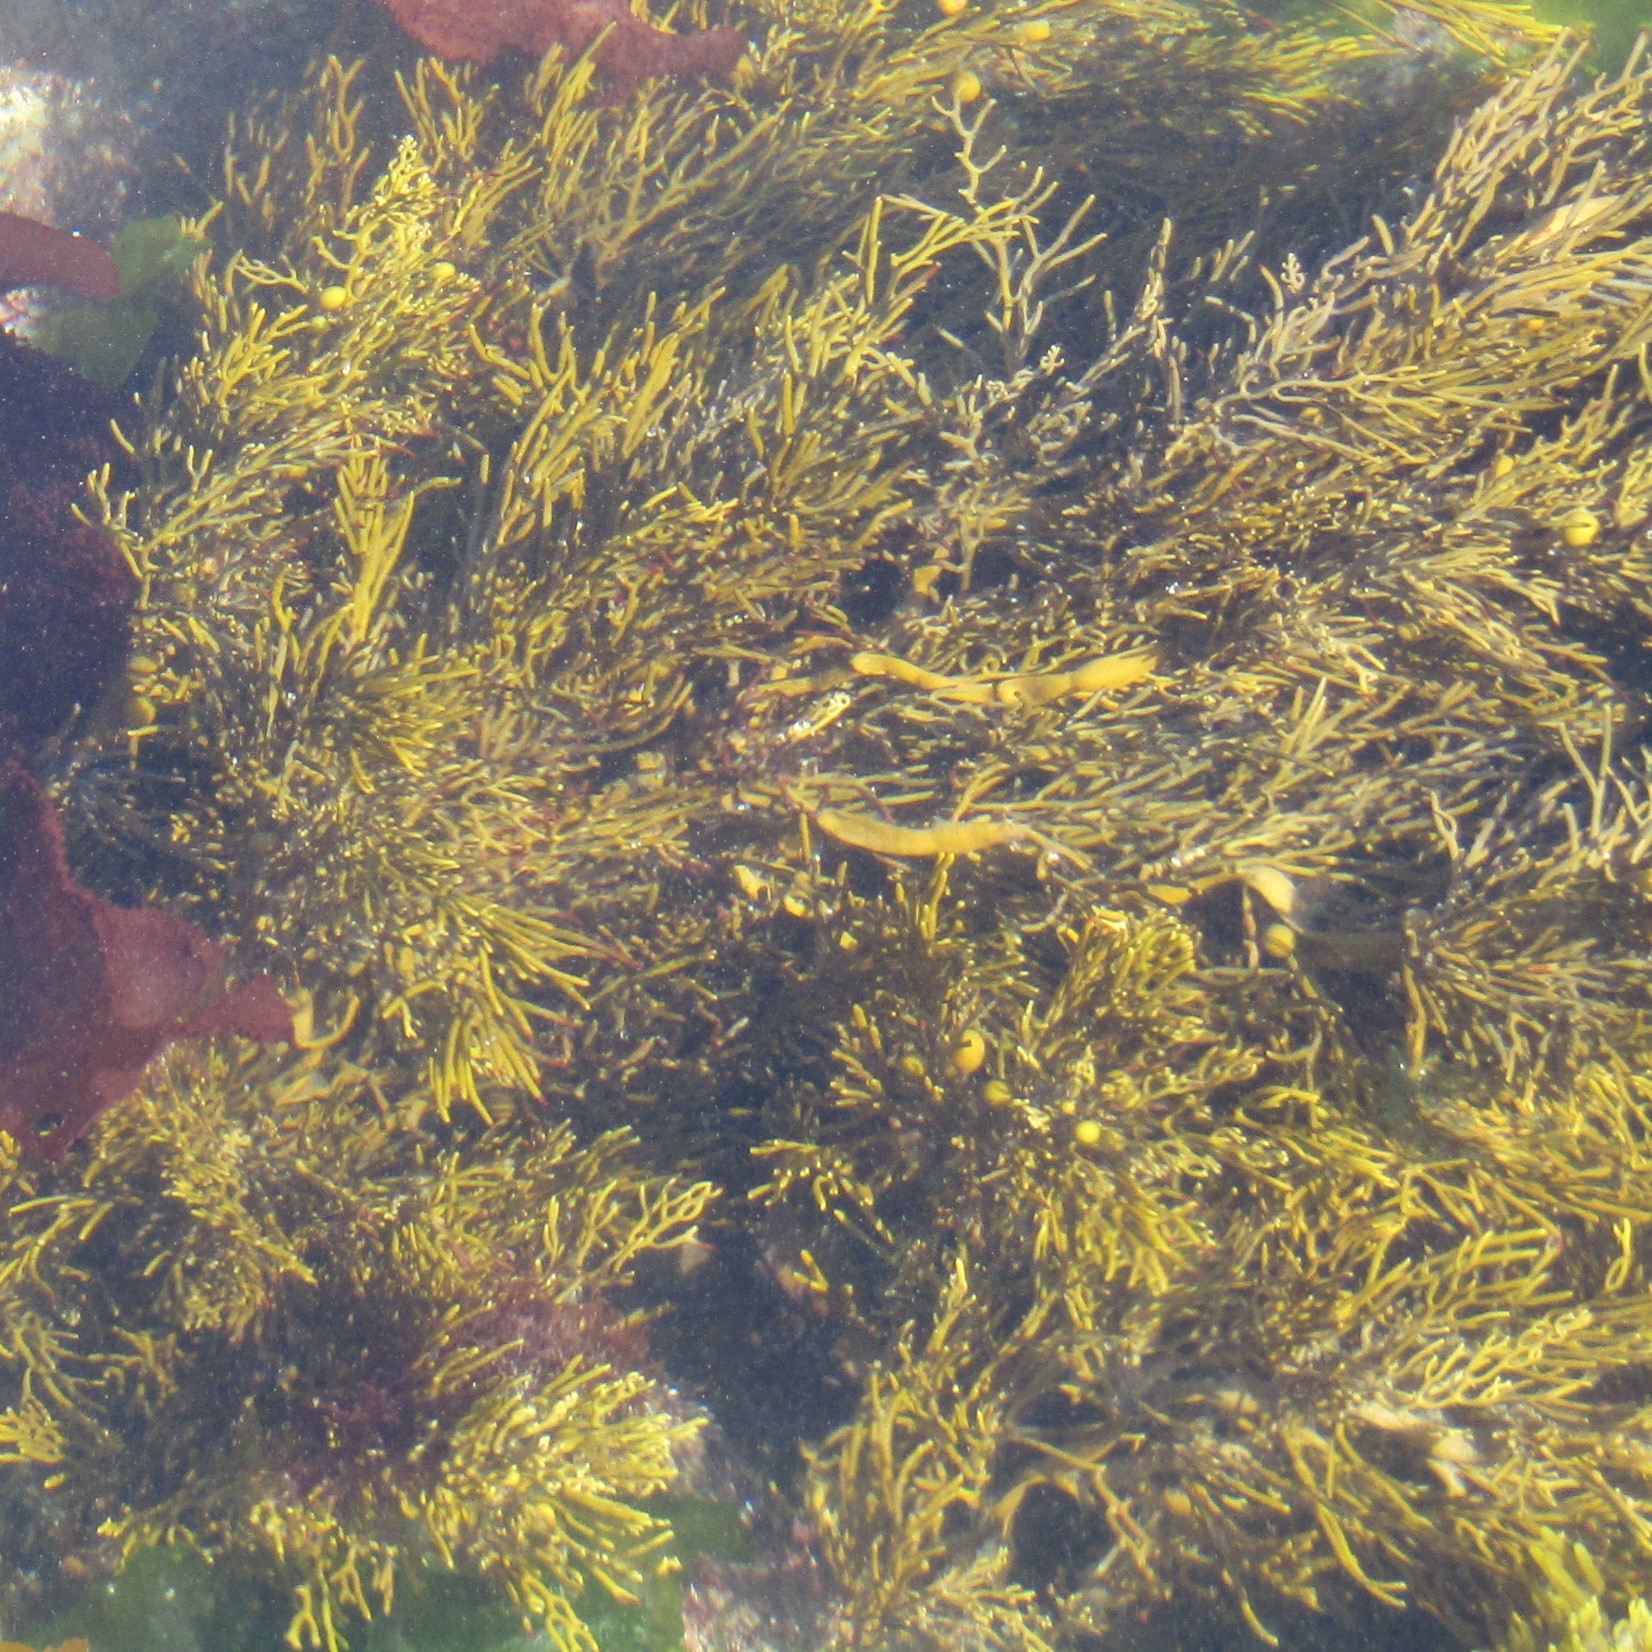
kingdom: Chromista
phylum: Ochrophyta
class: Phaeophyceae
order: Fucales
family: Sargassaceae
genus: Cystophora
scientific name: Cystophora retroflexa
